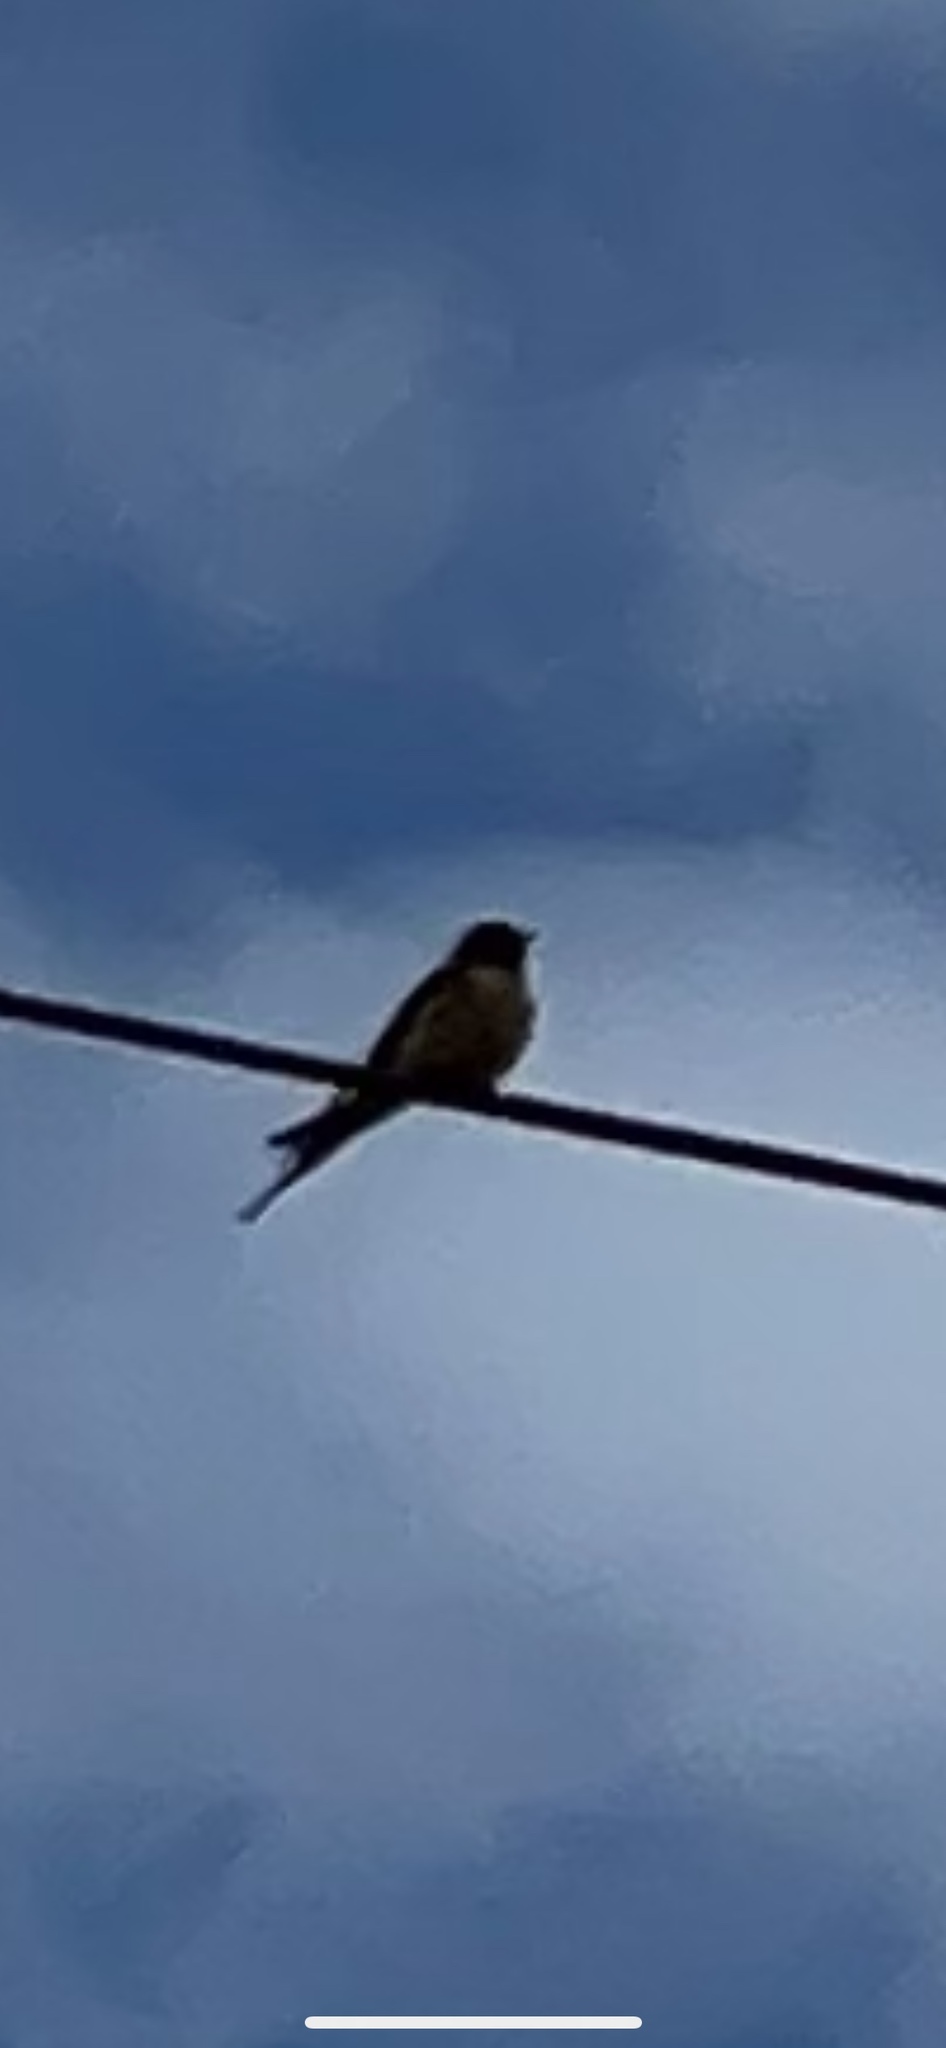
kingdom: Animalia
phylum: Chordata
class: Aves
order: Passeriformes
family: Hirundinidae
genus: Hirundo
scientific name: Hirundo rustica
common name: Barn swallow
